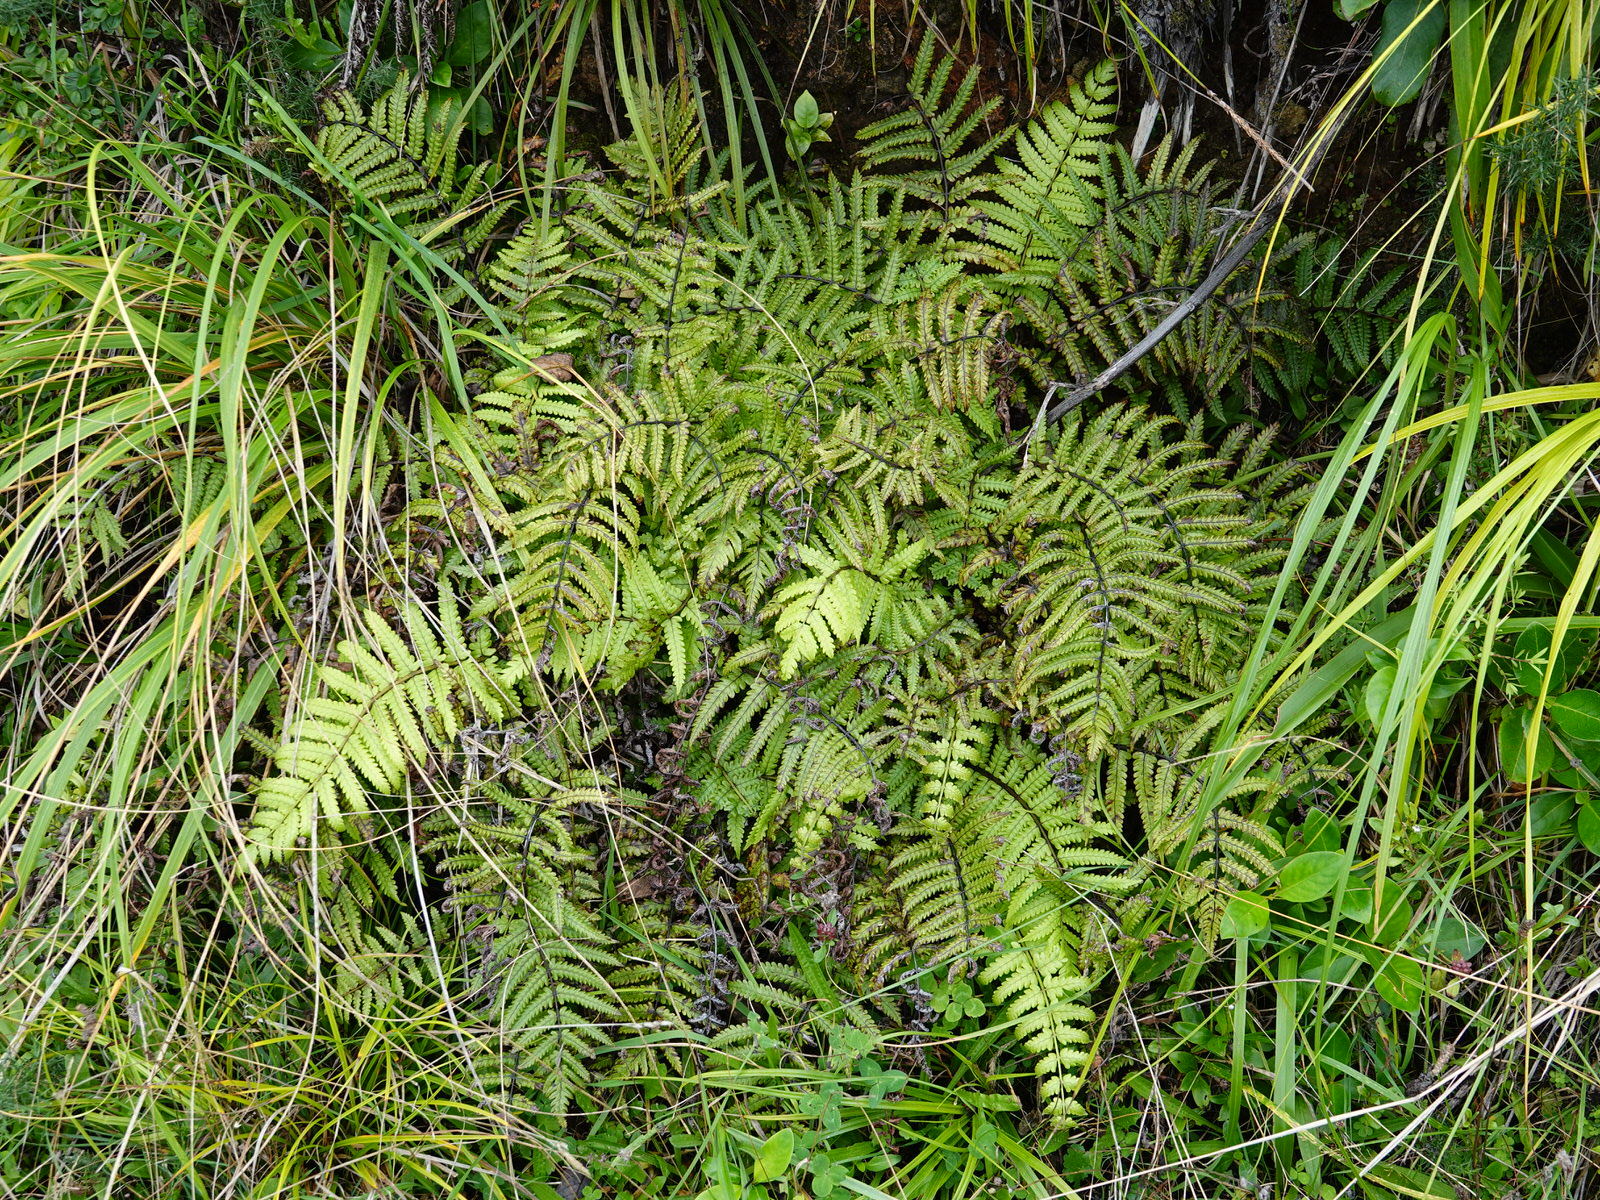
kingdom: Plantae
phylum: Tracheophyta
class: Polypodiopsida
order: Polypodiales
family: Thelypteridaceae
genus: Pakau
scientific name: Pakau pennigera
